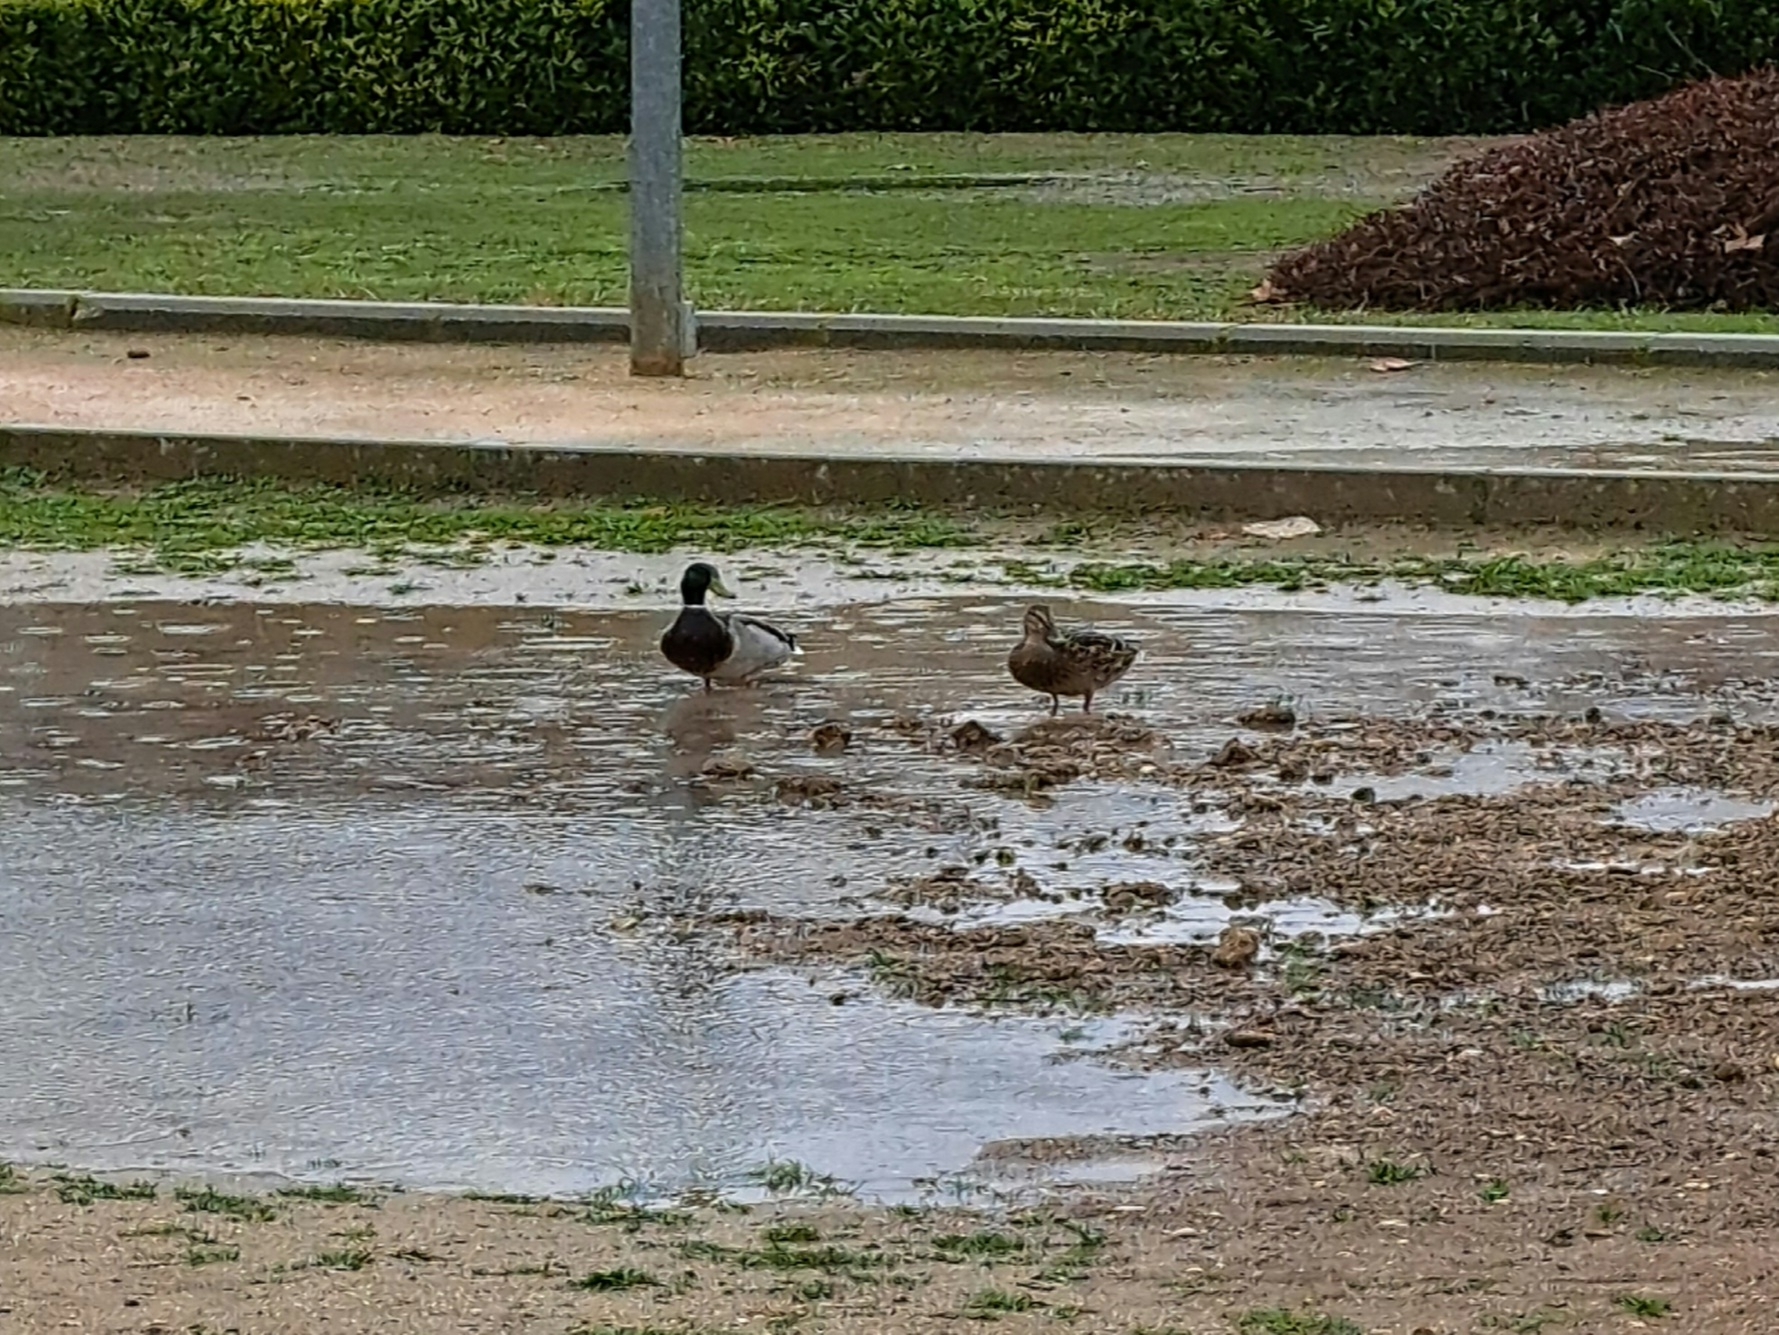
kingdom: Animalia
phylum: Chordata
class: Aves
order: Anseriformes
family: Anatidae
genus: Anas
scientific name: Anas platyrhynchos
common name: Mallard
